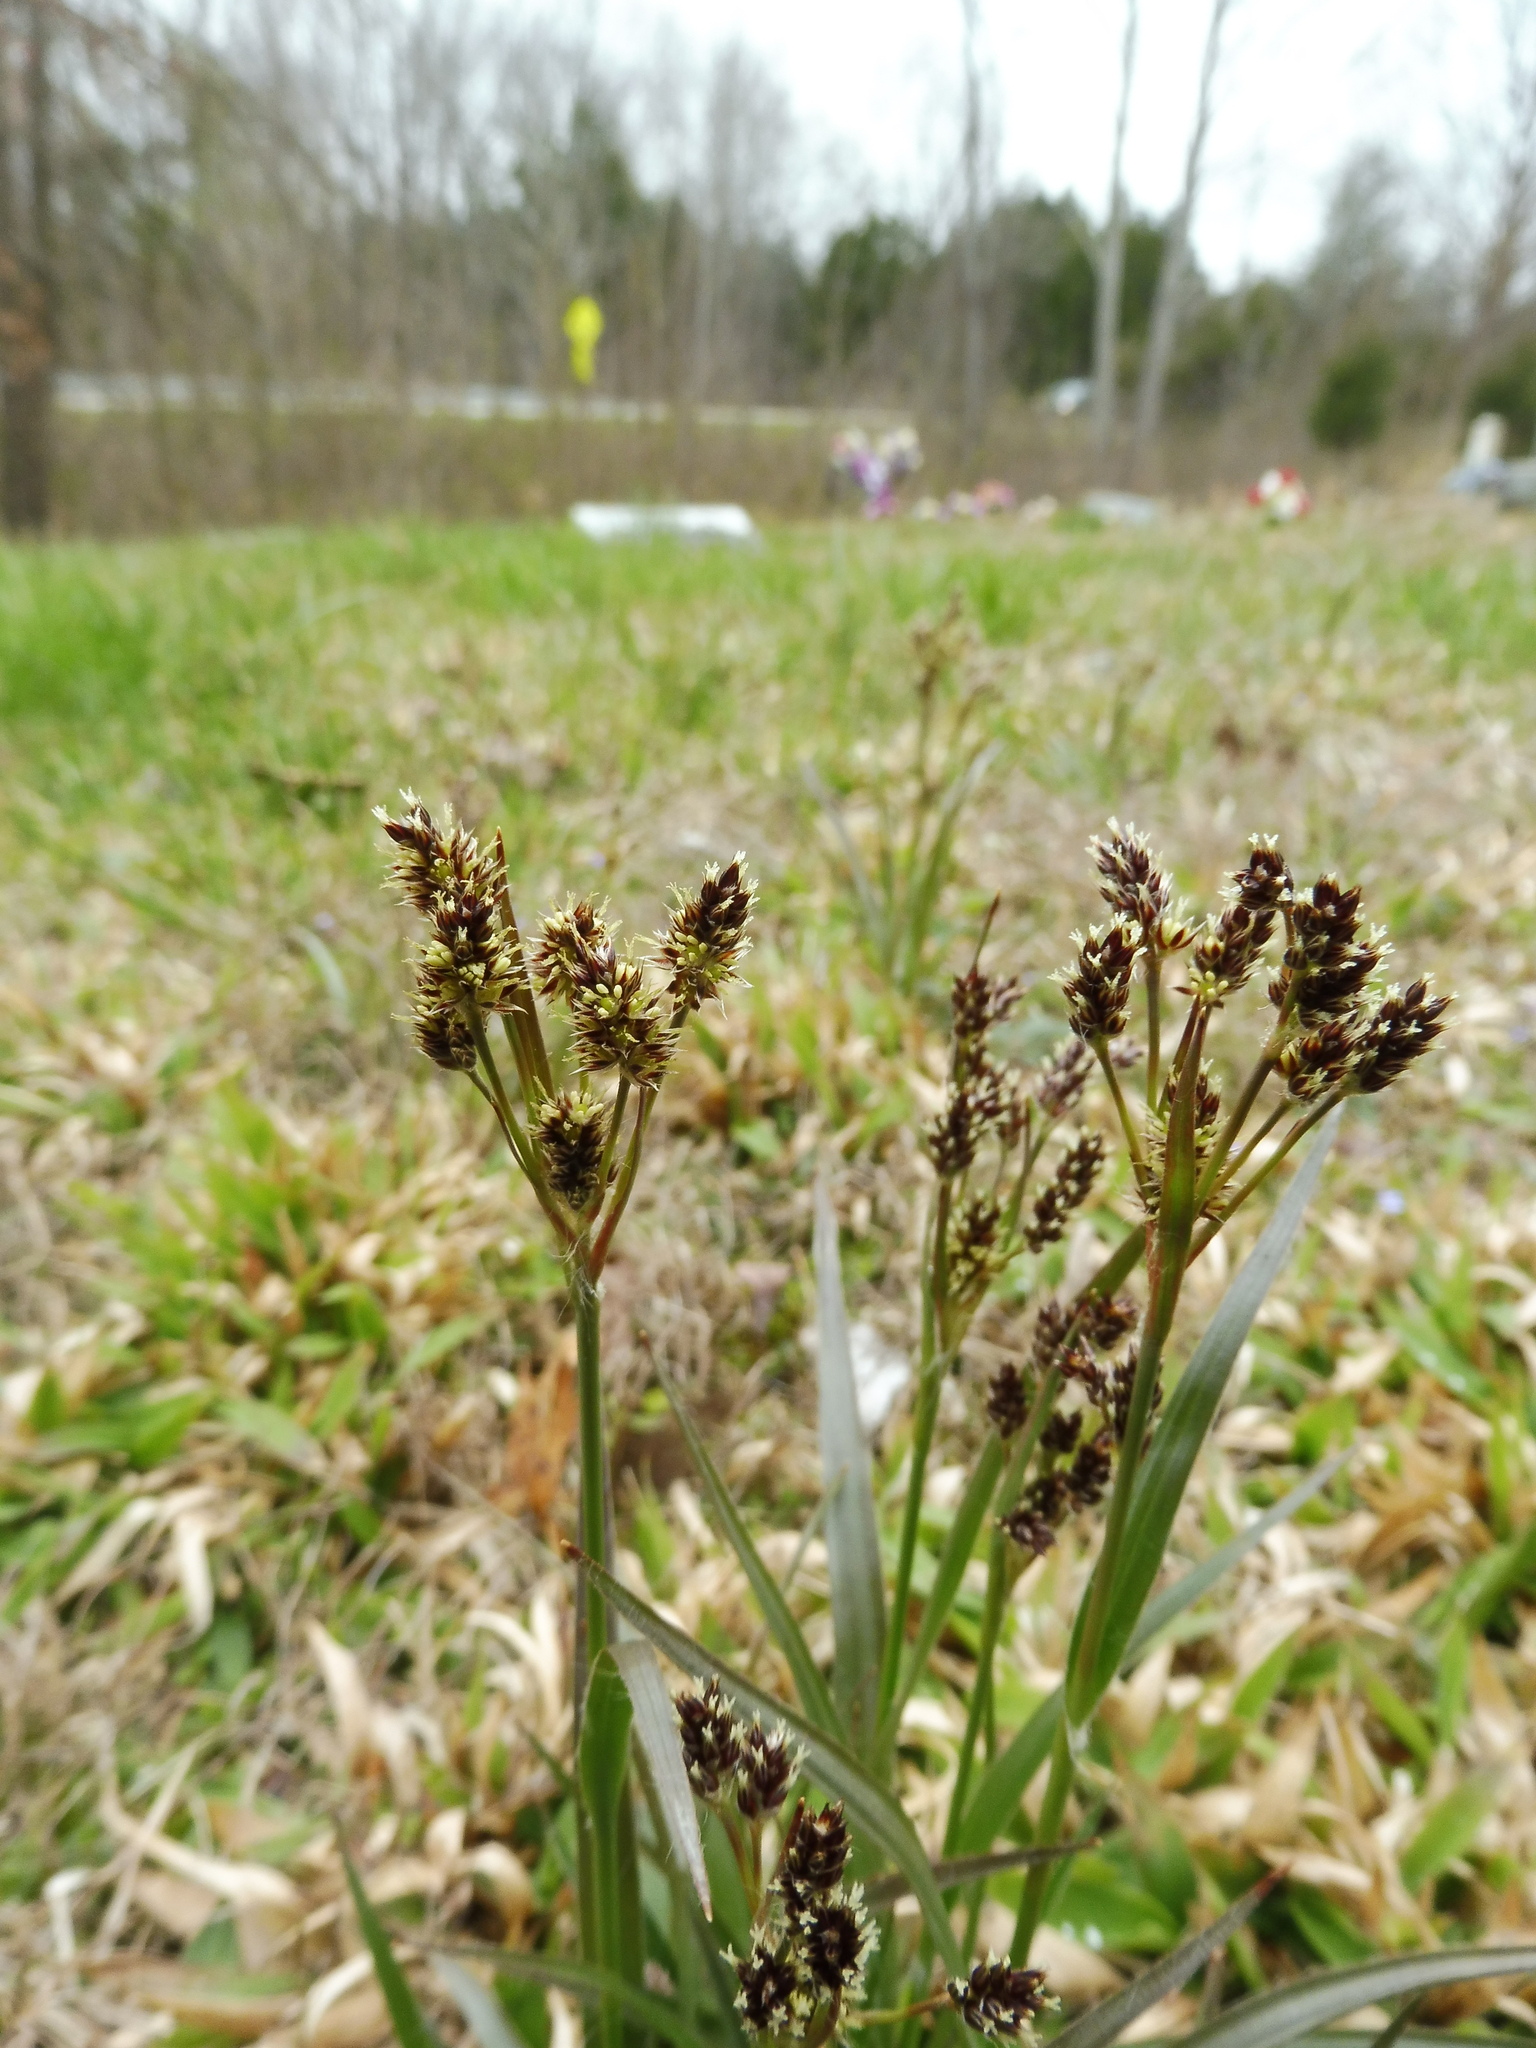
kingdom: Plantae
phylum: Tracheophyta
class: Liliopsida
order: Poales
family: Juncaceae
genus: Luzula
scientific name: Luzula multiflora
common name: Heath wood-rush
